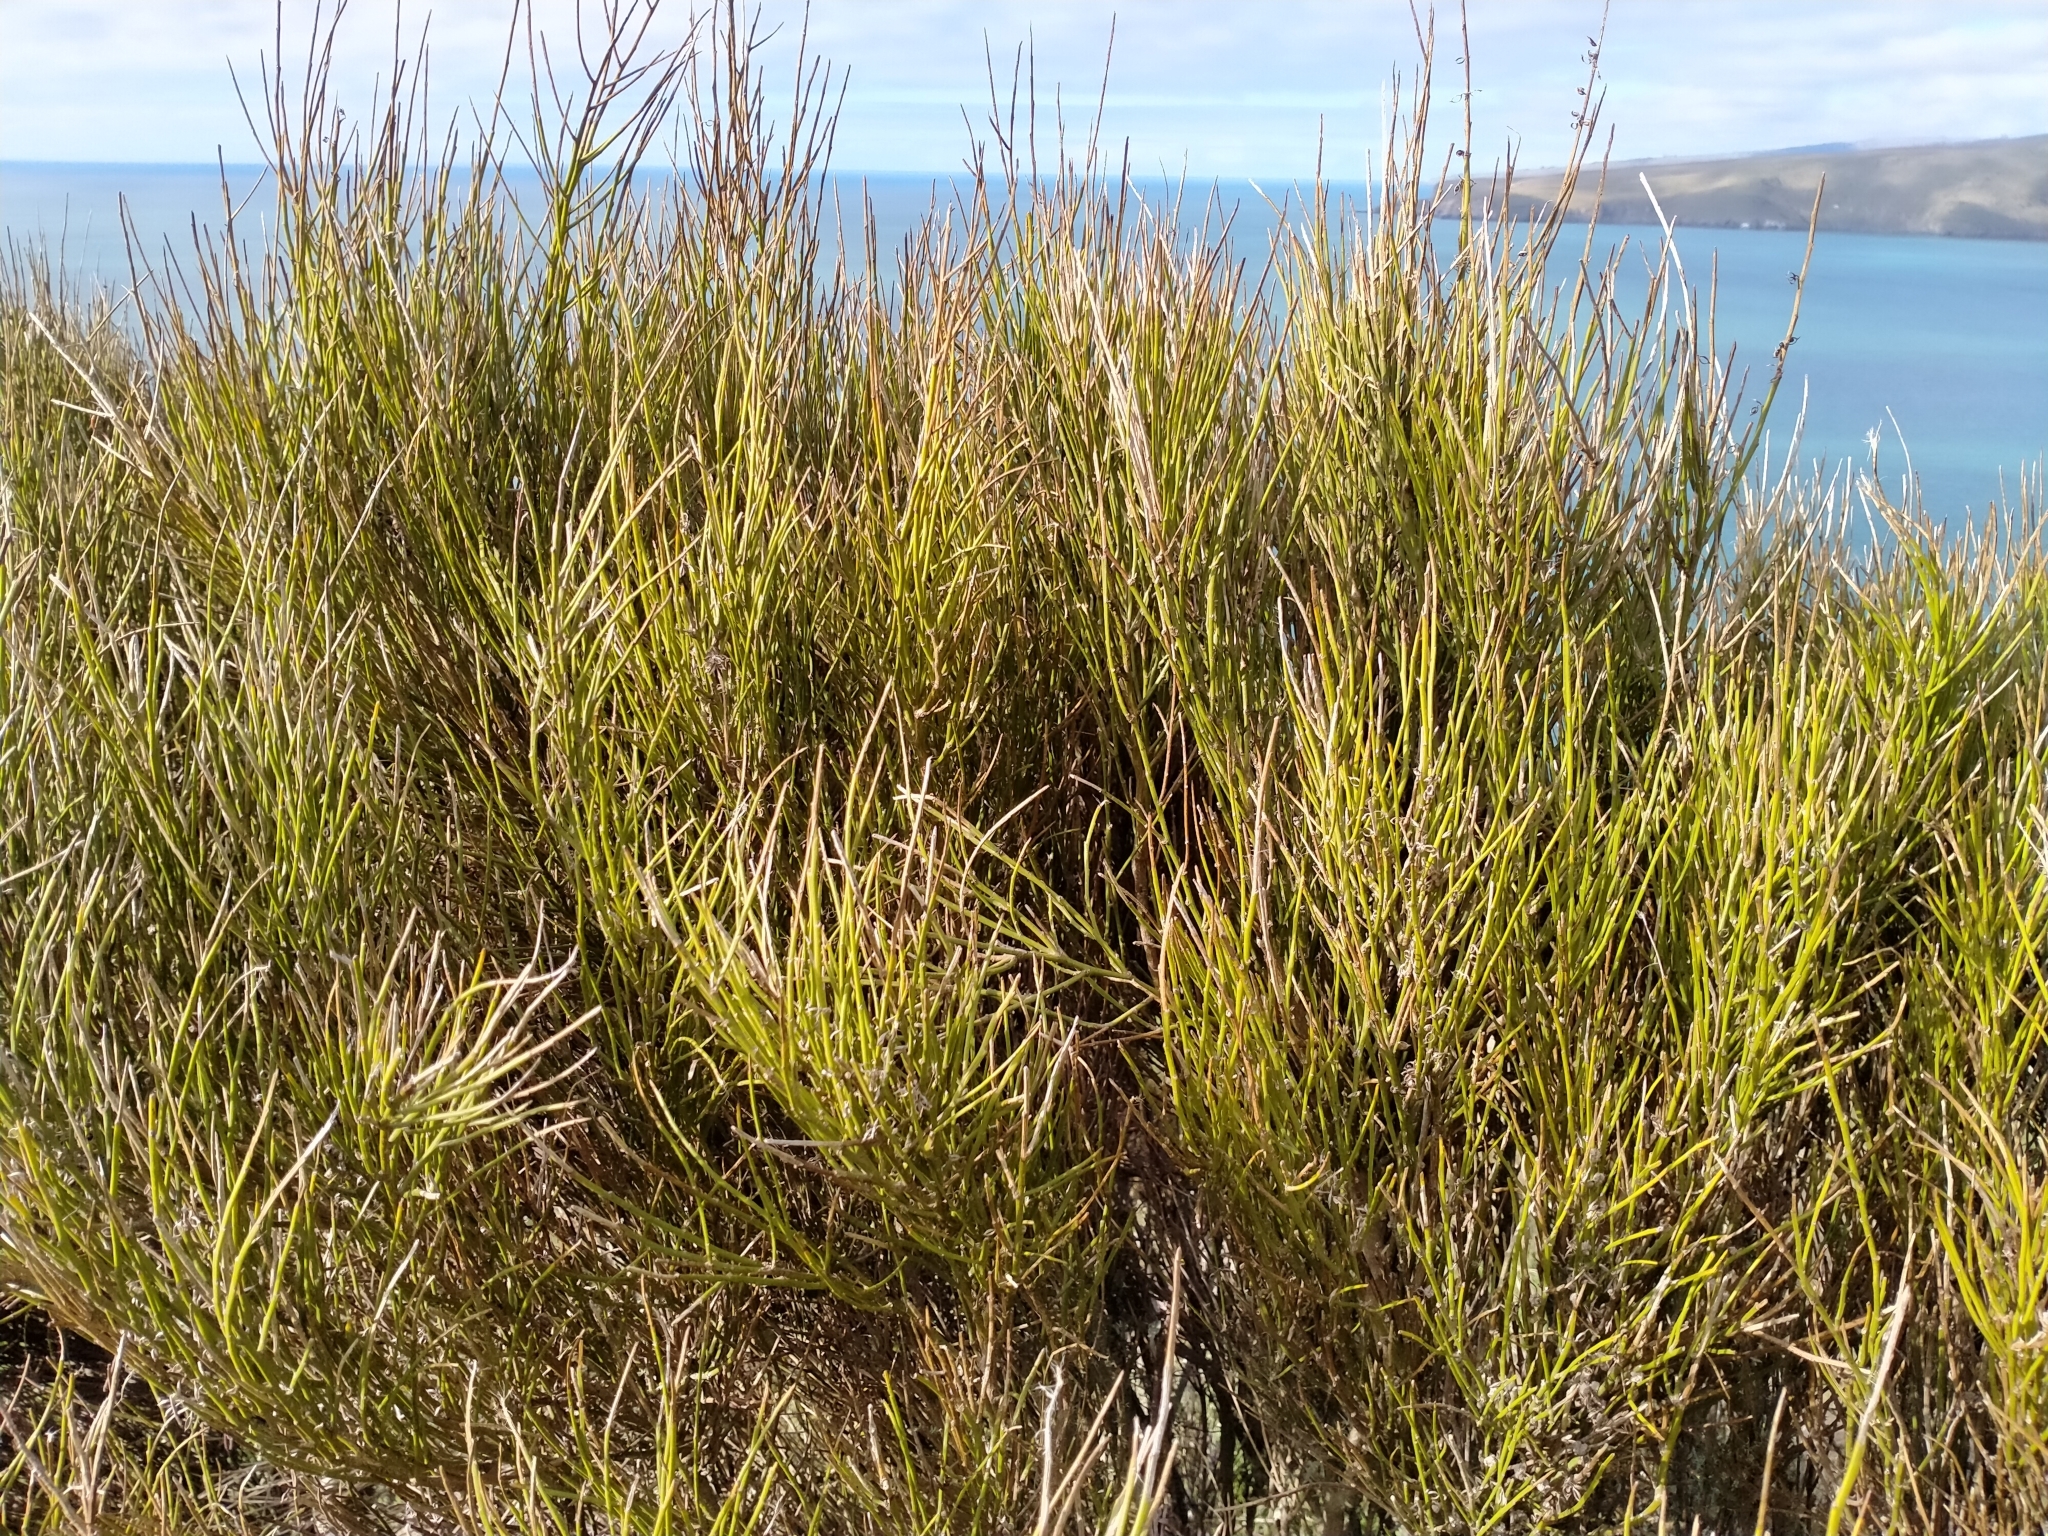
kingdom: Plantae
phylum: Tracheophyta
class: Magnoliopsida
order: Fabales
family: Fabaceae
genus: Carmichaelia
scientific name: Carmichaelia australis
